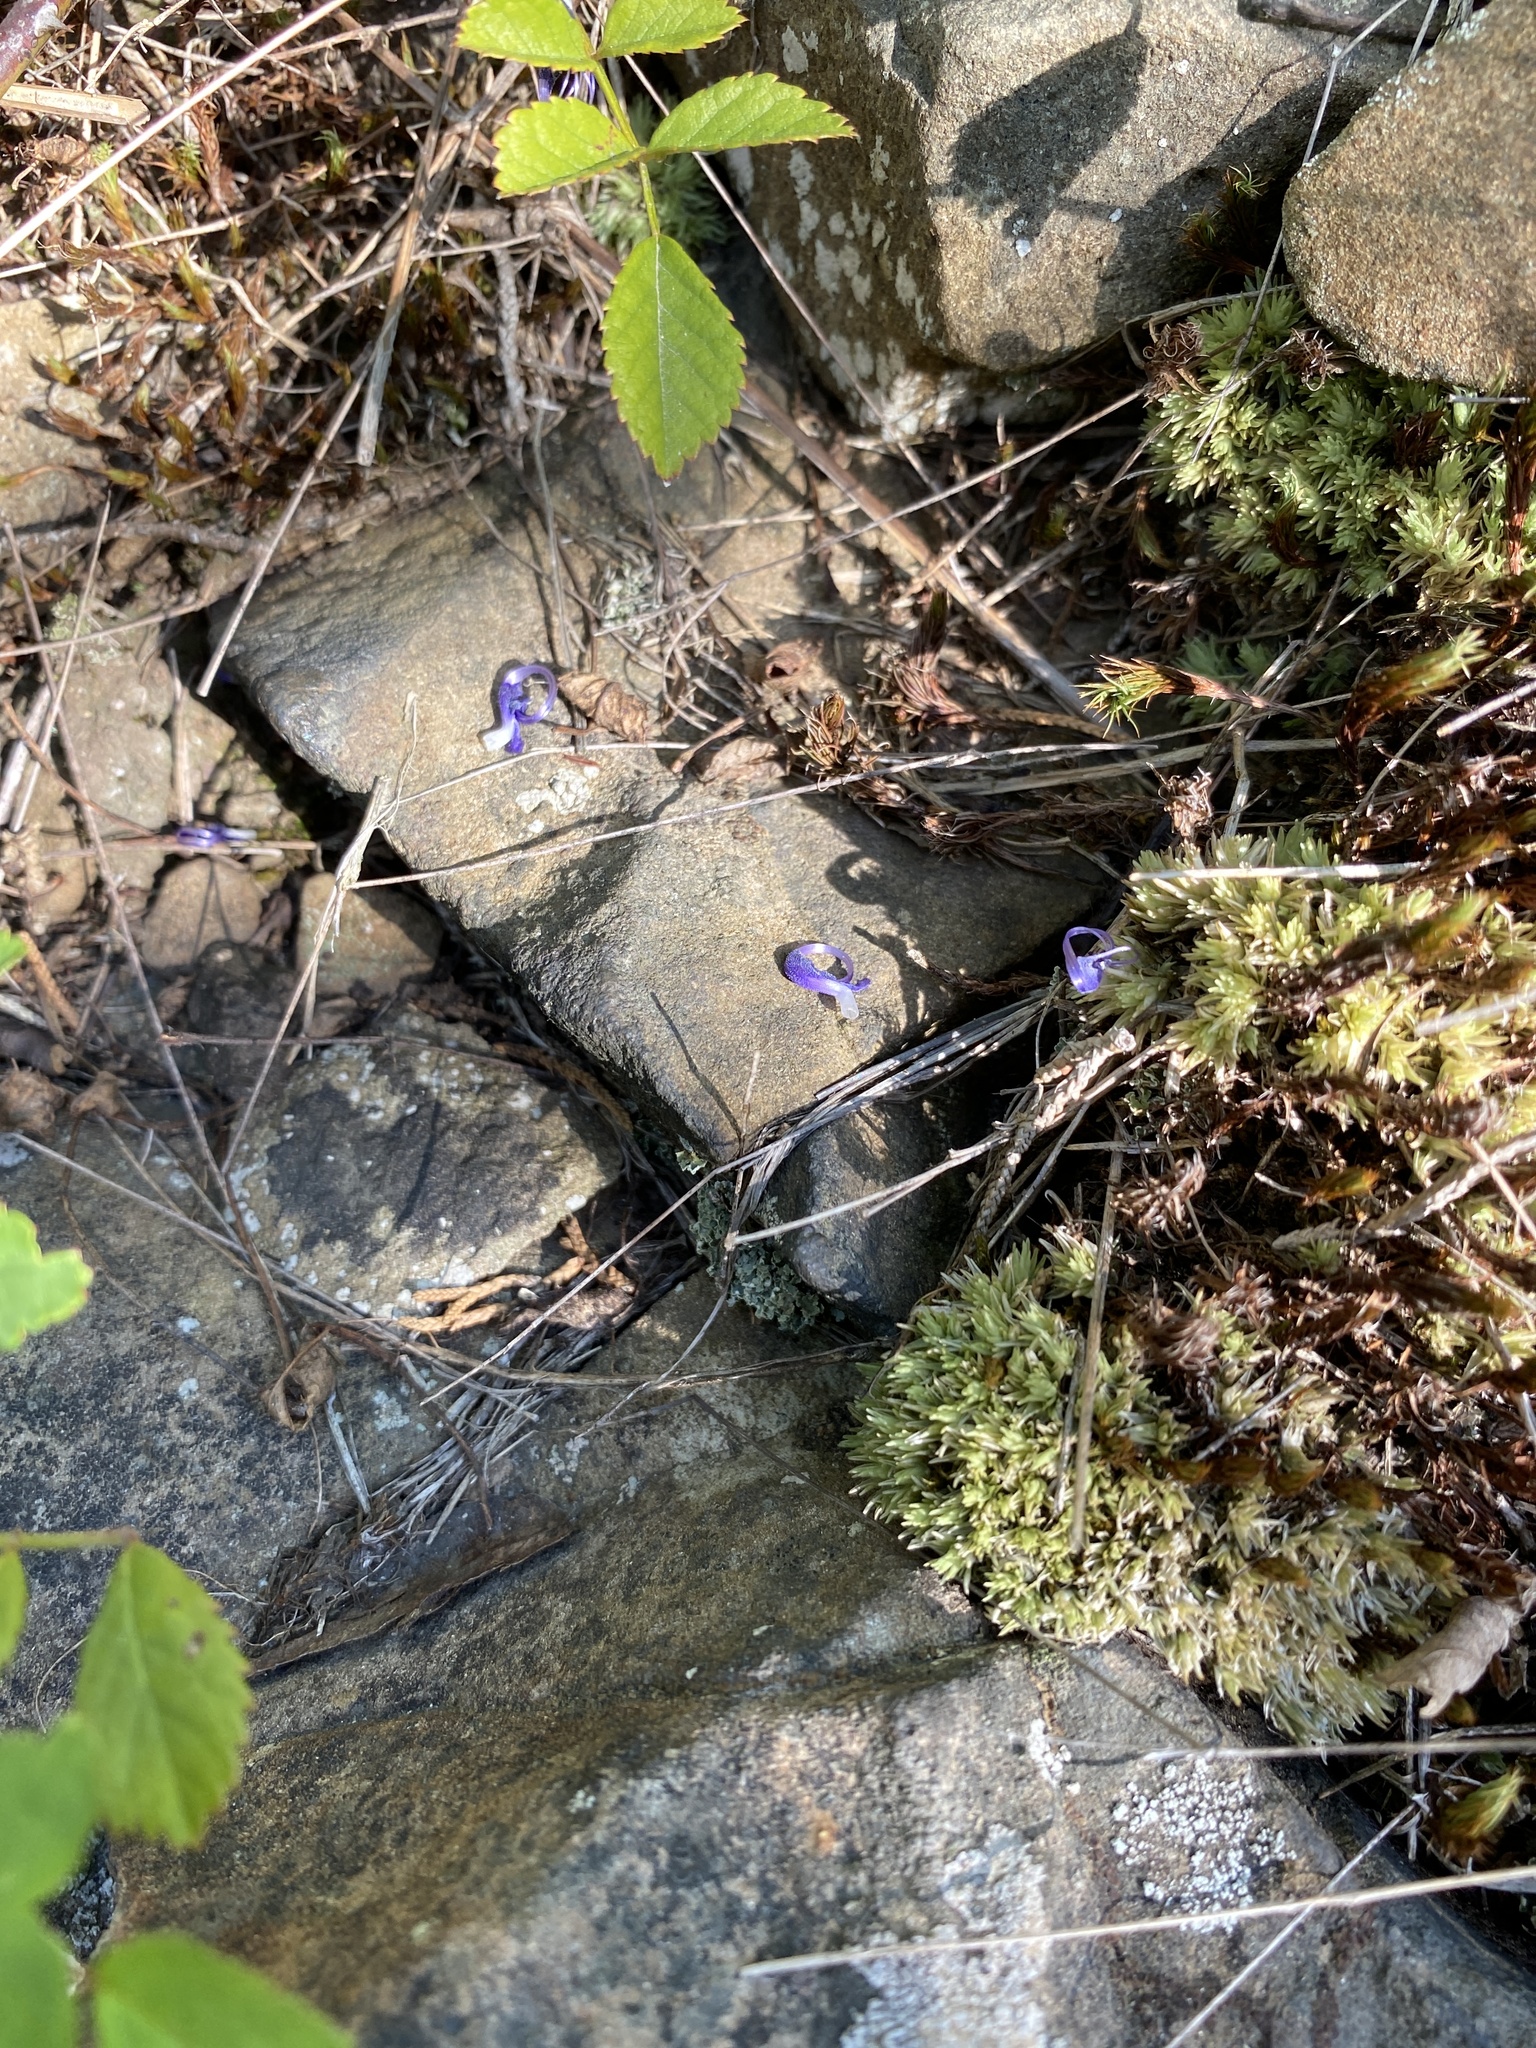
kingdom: Plantae
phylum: Tracheophyta
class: Magnoliopsida
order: Lamiales
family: Lamiaceae
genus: Trichostema
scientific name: Trichostema dichotomum
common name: Bastard pennyroyal
